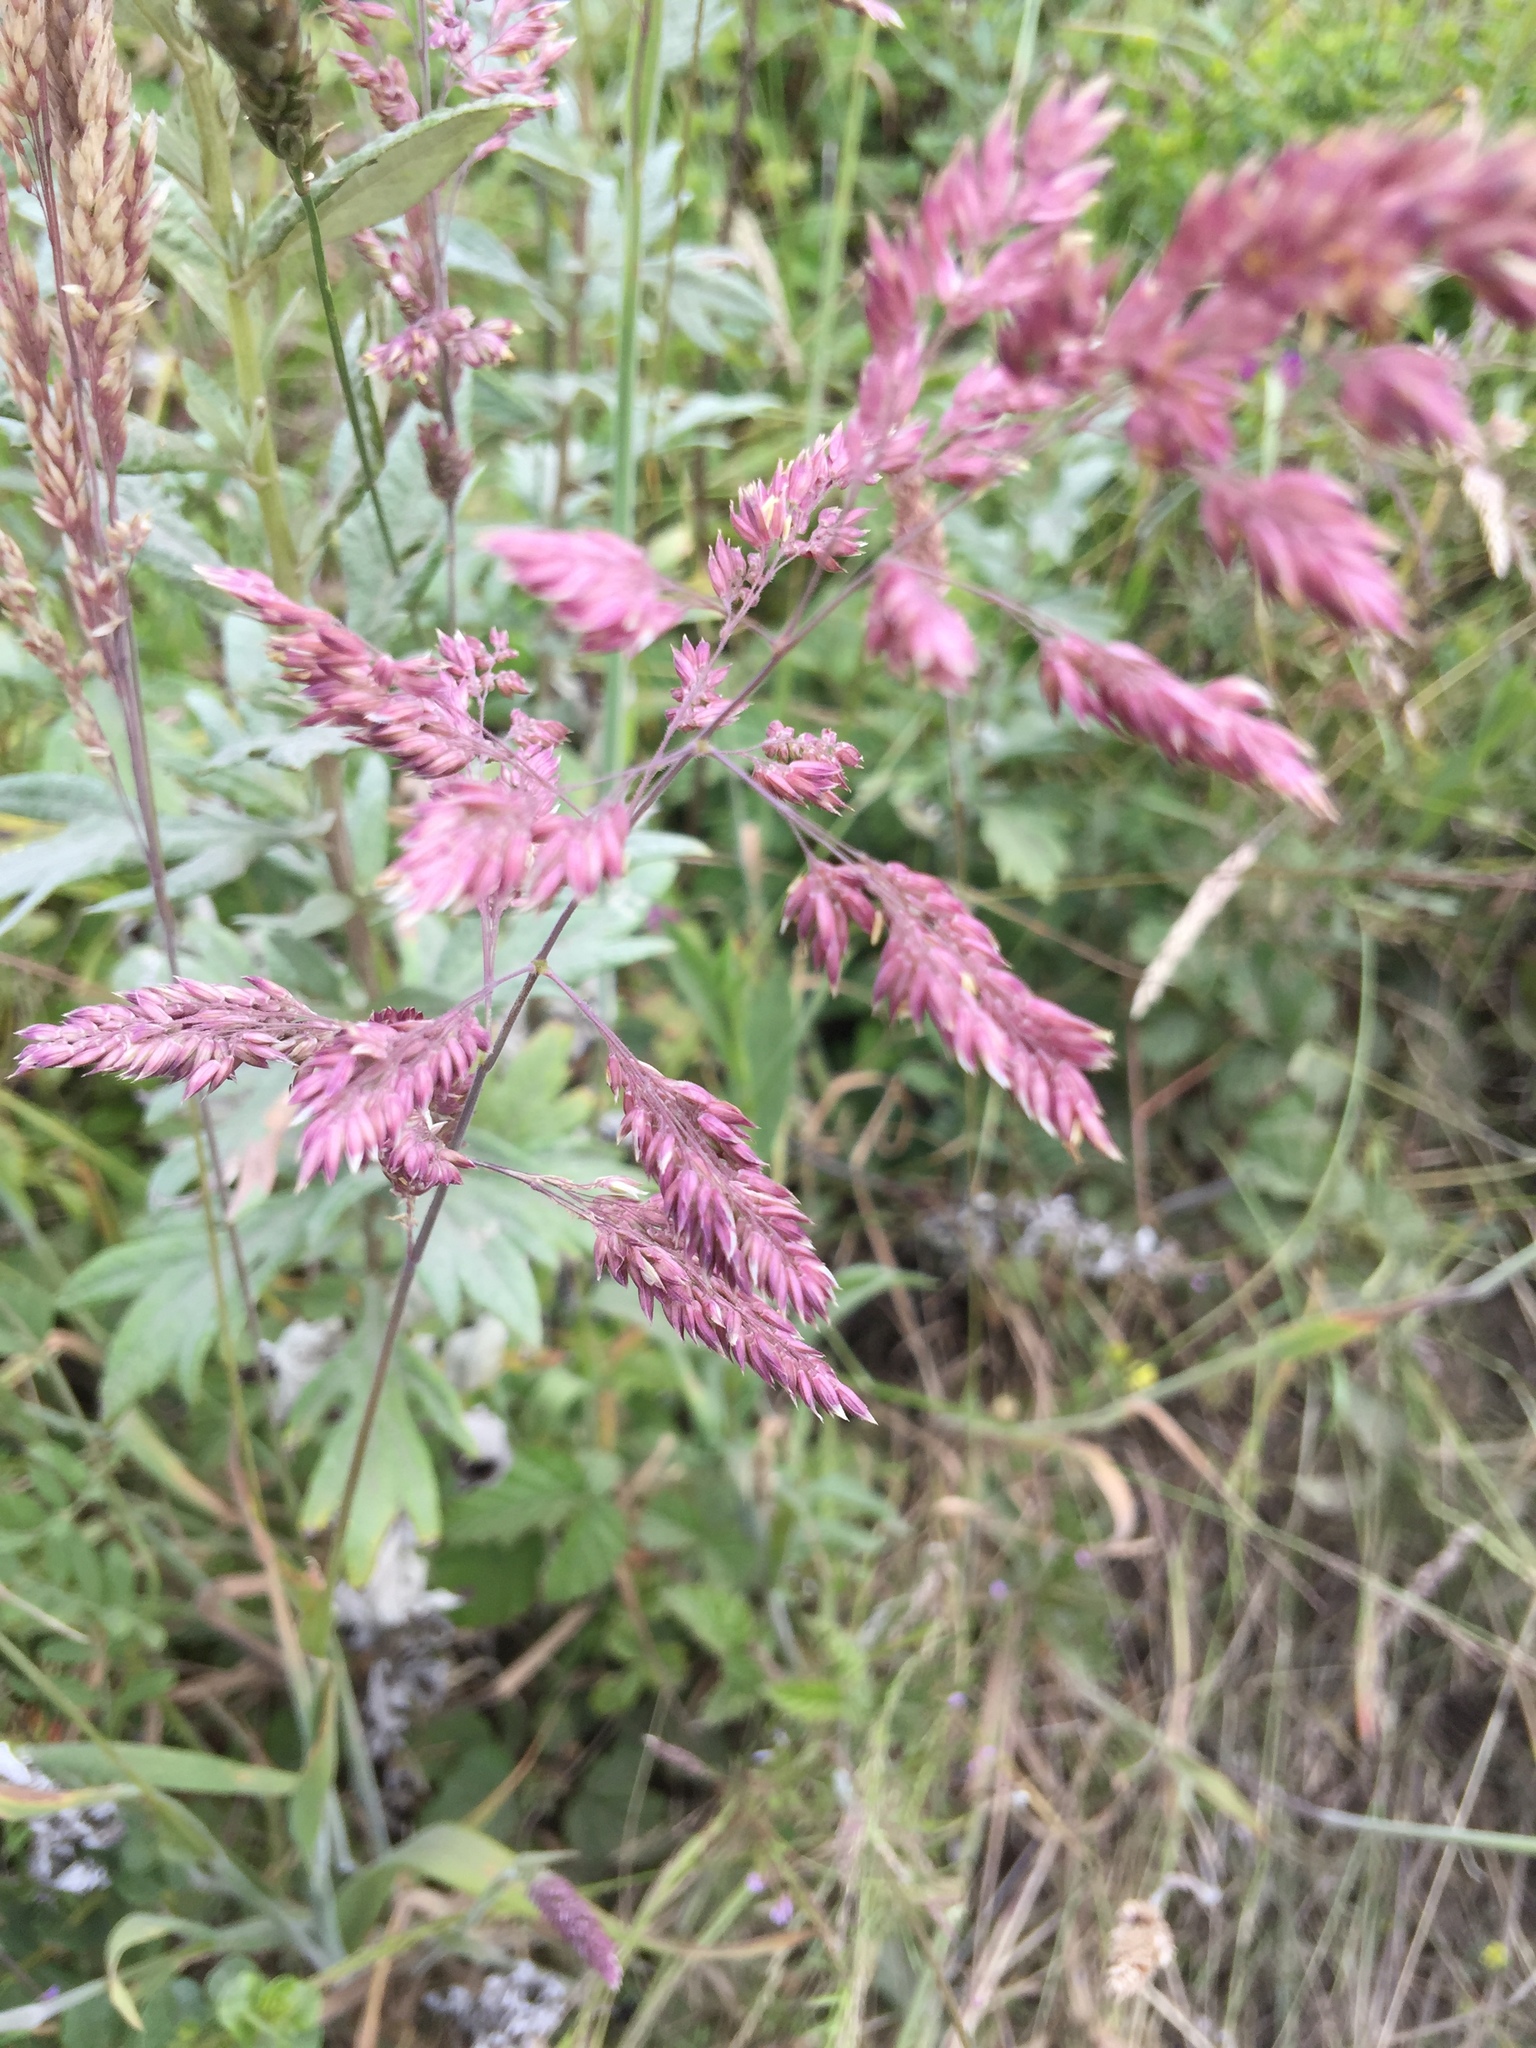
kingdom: Plantae
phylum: Tracheophyta
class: Liliopsida
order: Poales
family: Poaceae
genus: Holcus
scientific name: Holcus lanatus
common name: Yorkshire-fog
